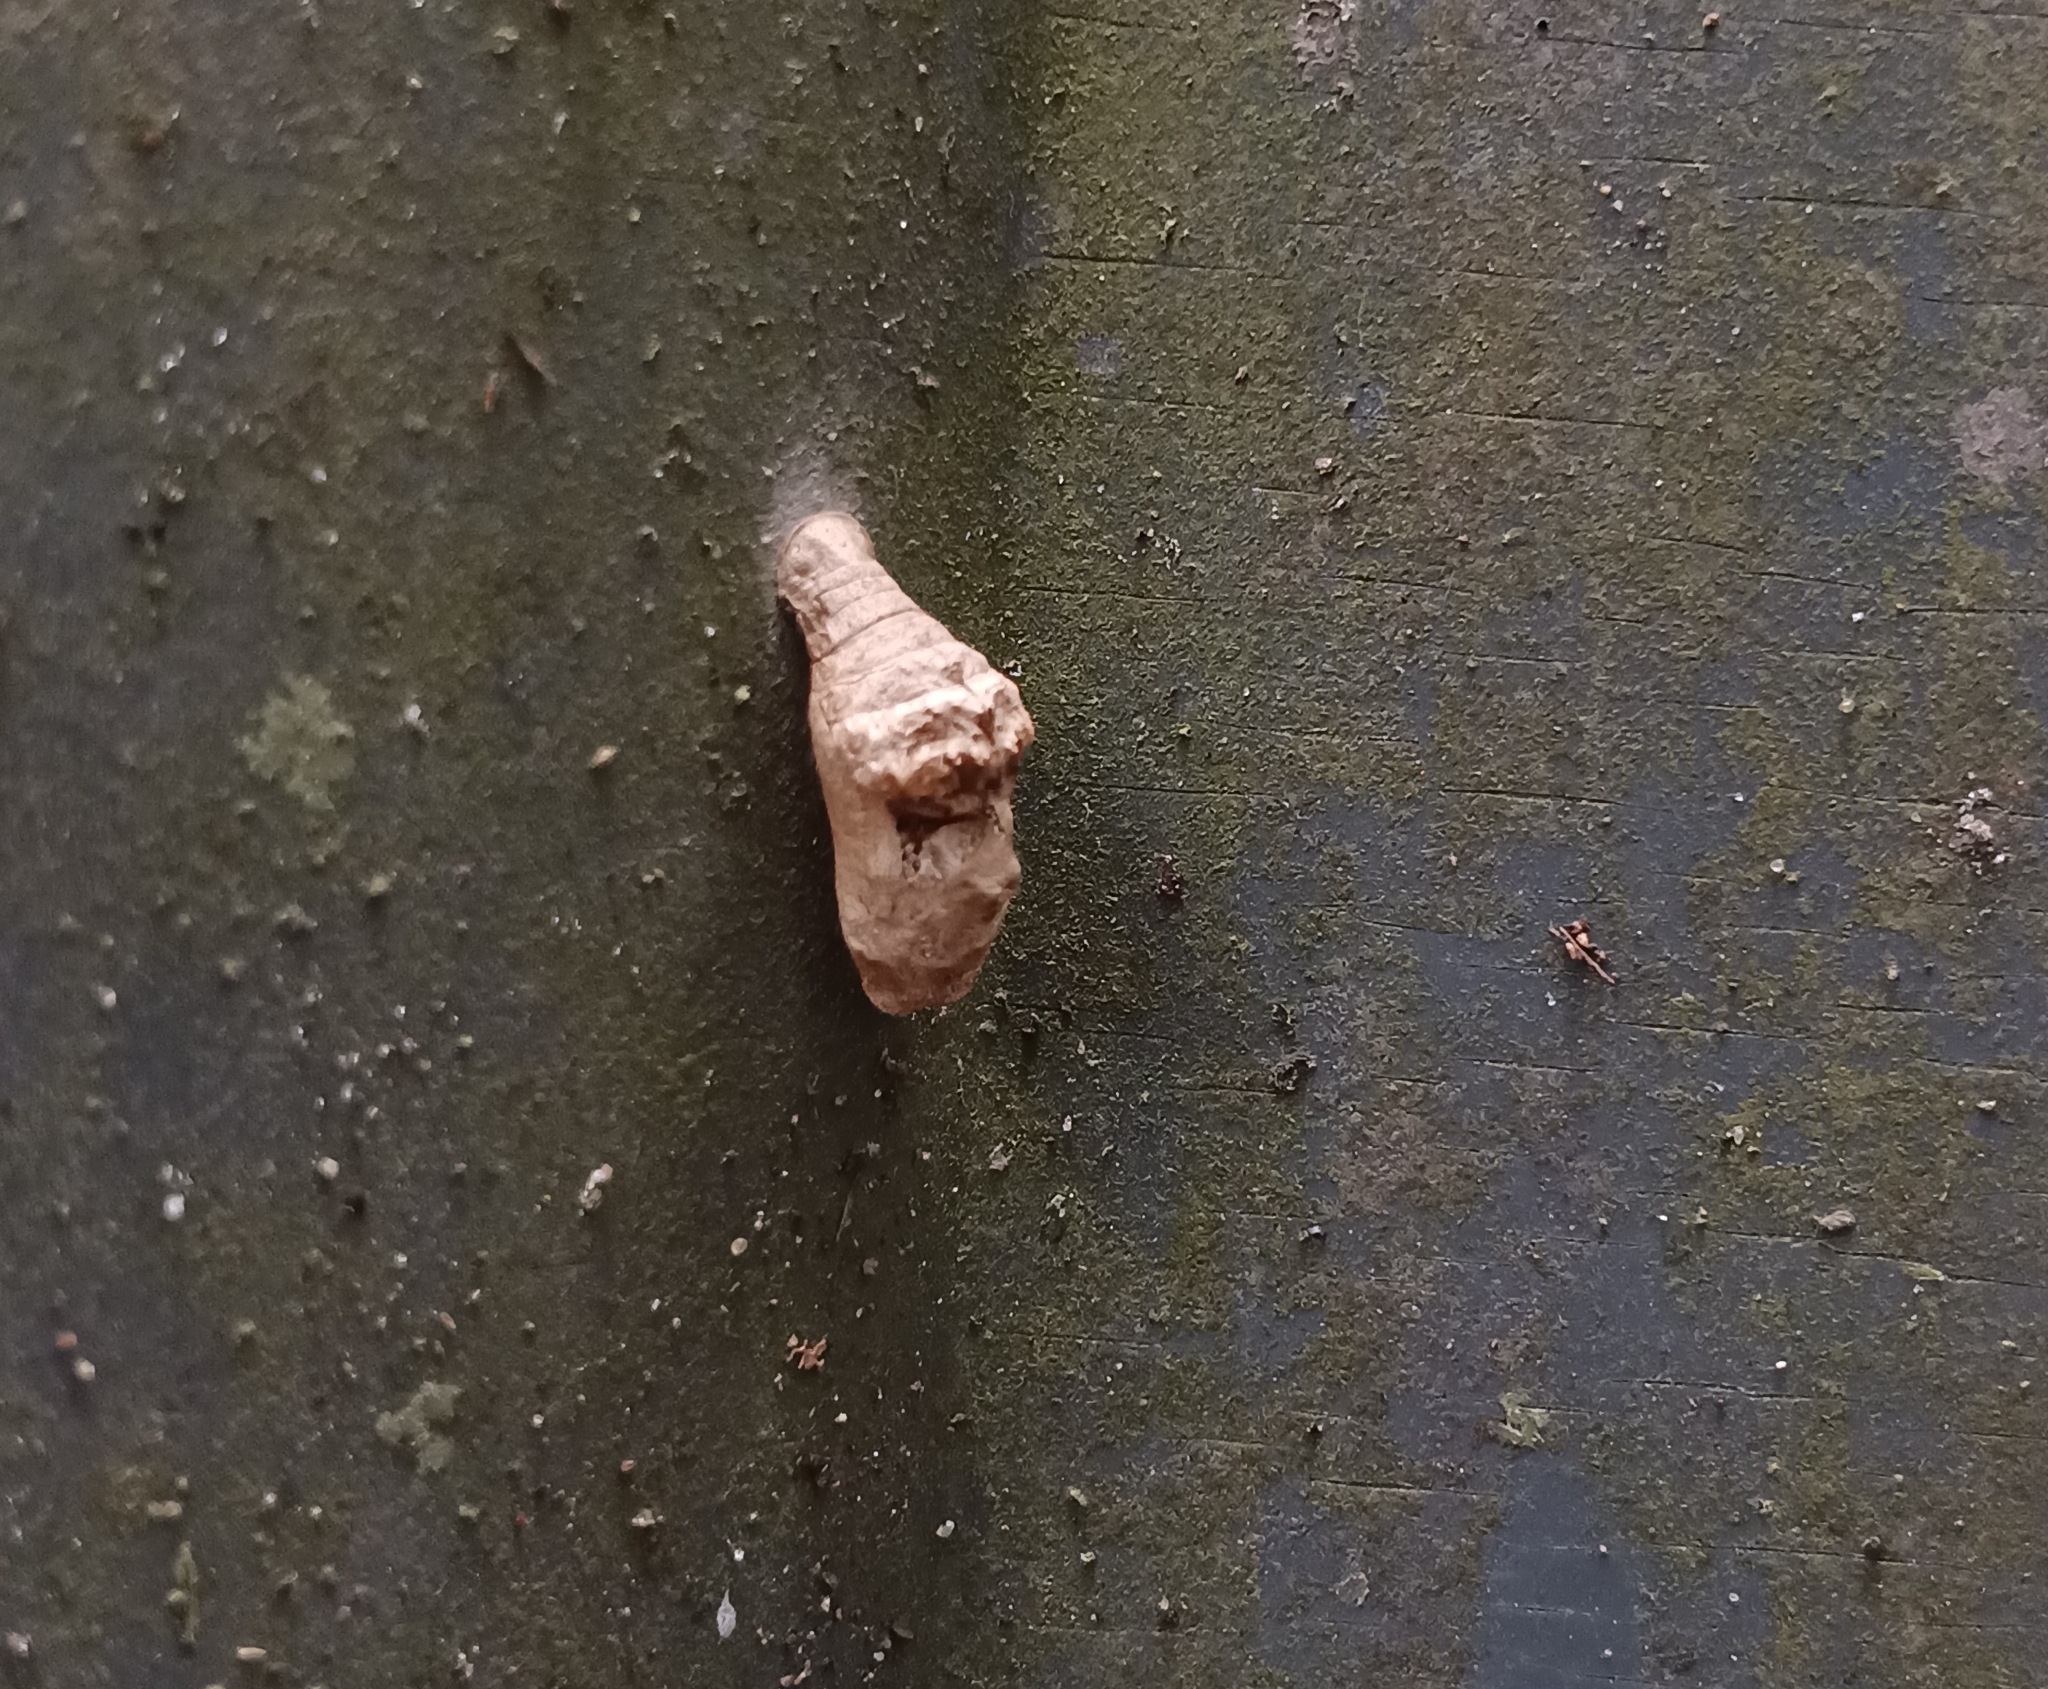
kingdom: Animalia
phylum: Arthropoda
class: Insecta
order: Lepidoptera
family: Lycaenidae
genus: Tajuria
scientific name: Tajuria cippus
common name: Peacock royal
